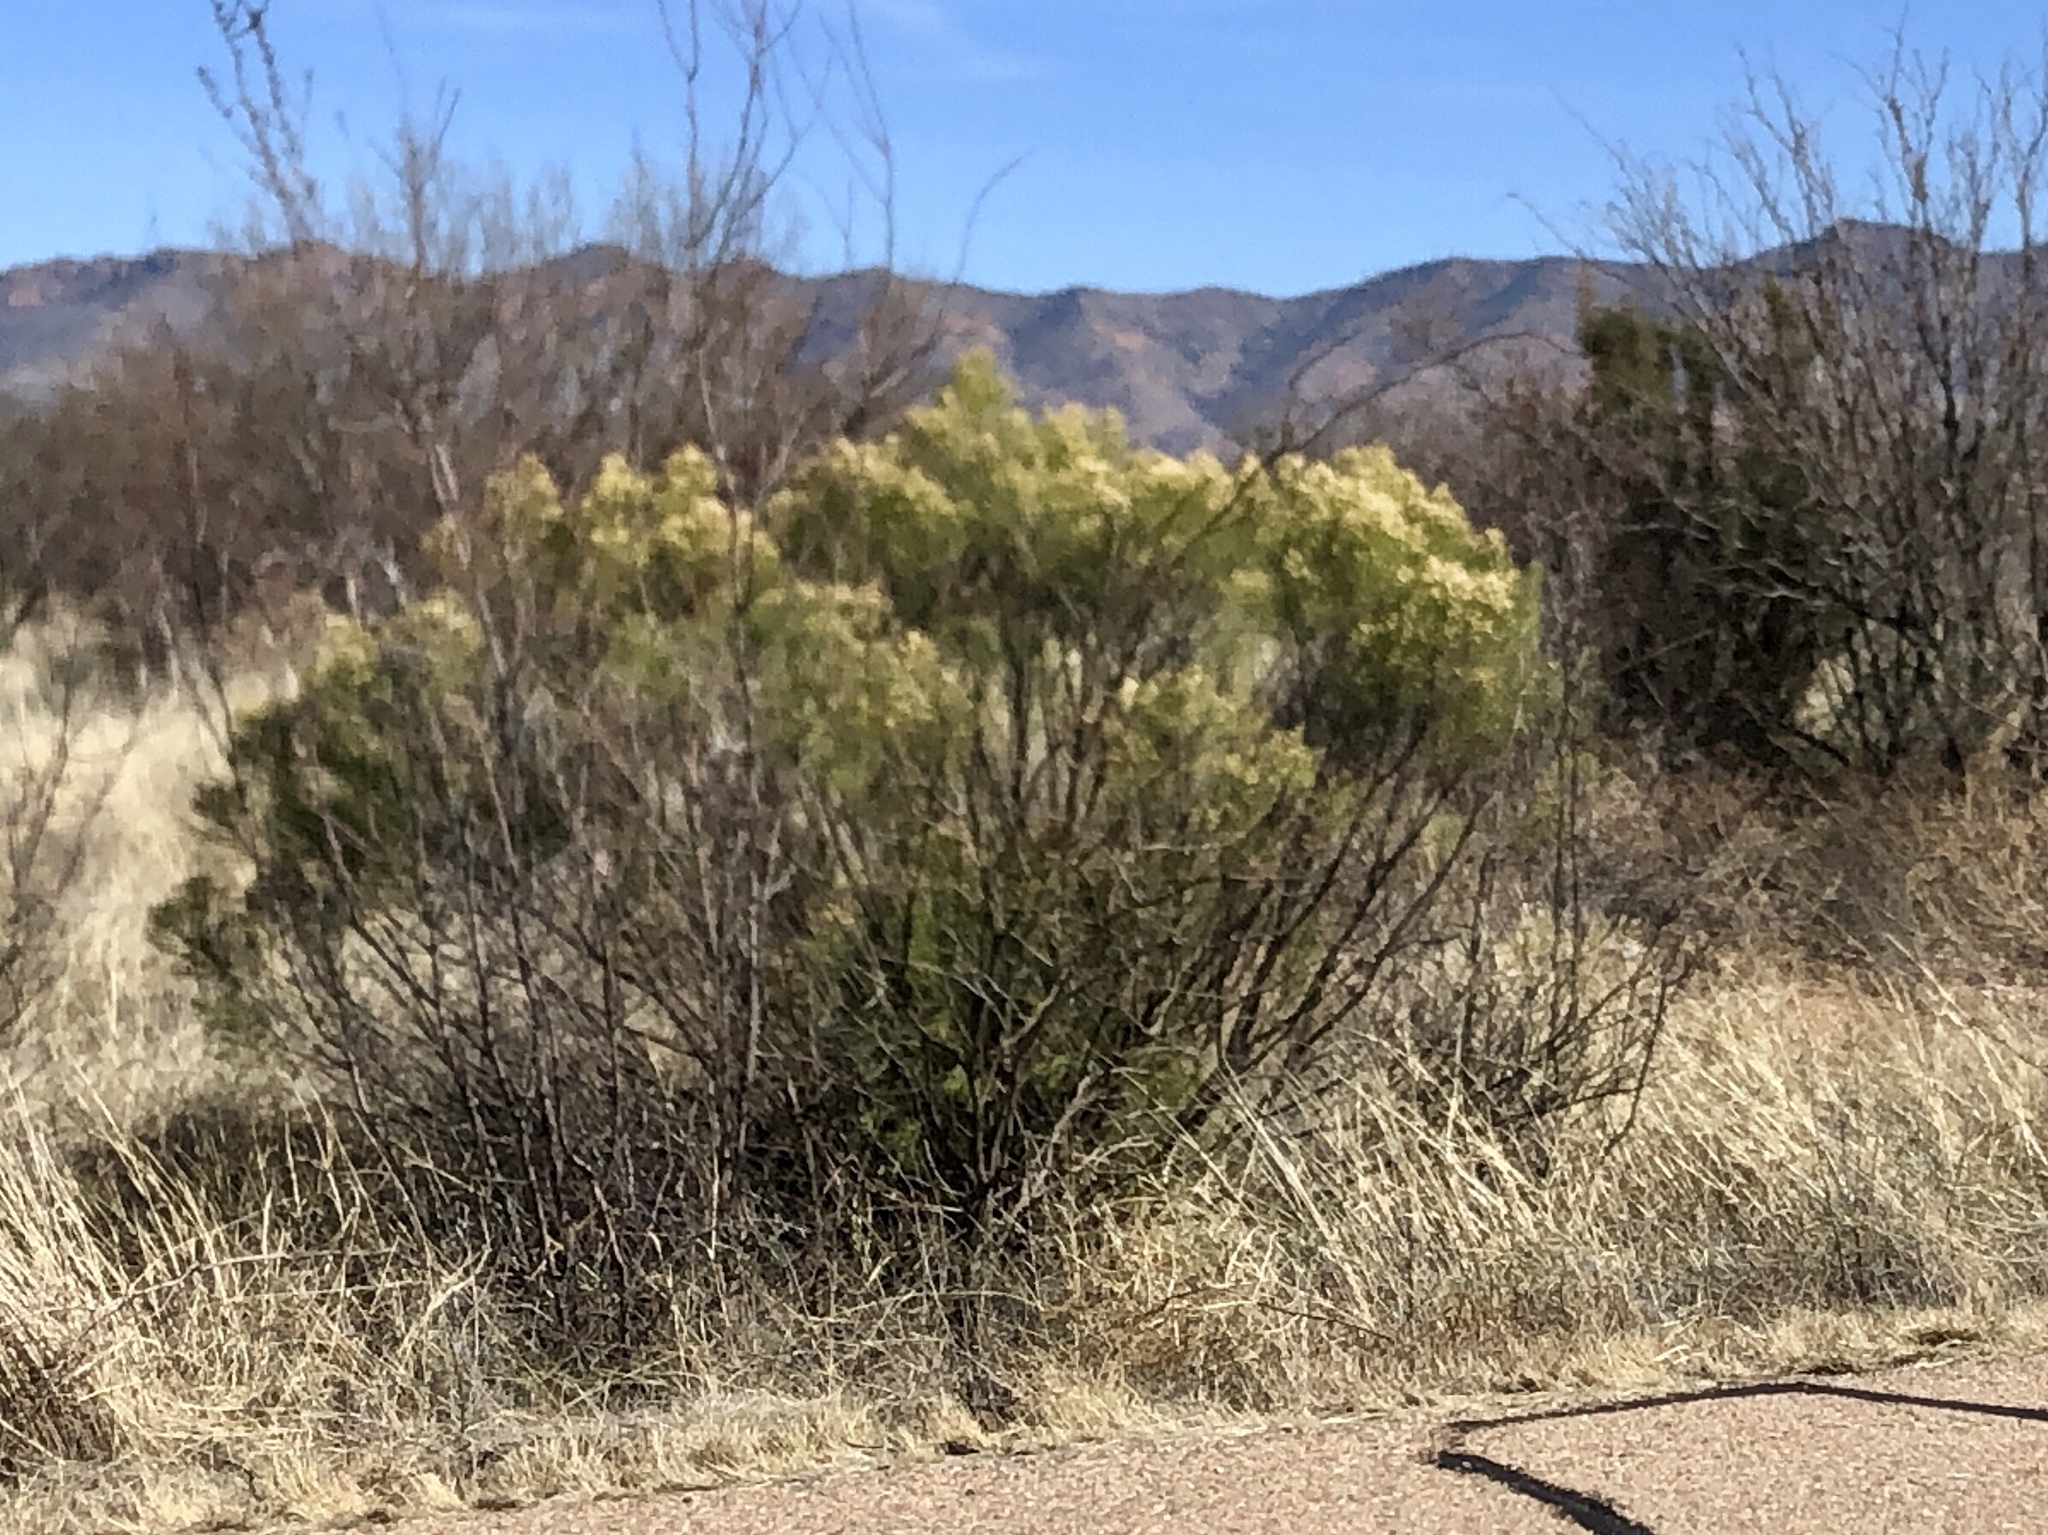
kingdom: Plantae
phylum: Tracheophyta
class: Magnoliopsida
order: Asterales
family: Asteraceae
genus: Baccharis
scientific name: Baccharis sarothroides
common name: Desert-broom
